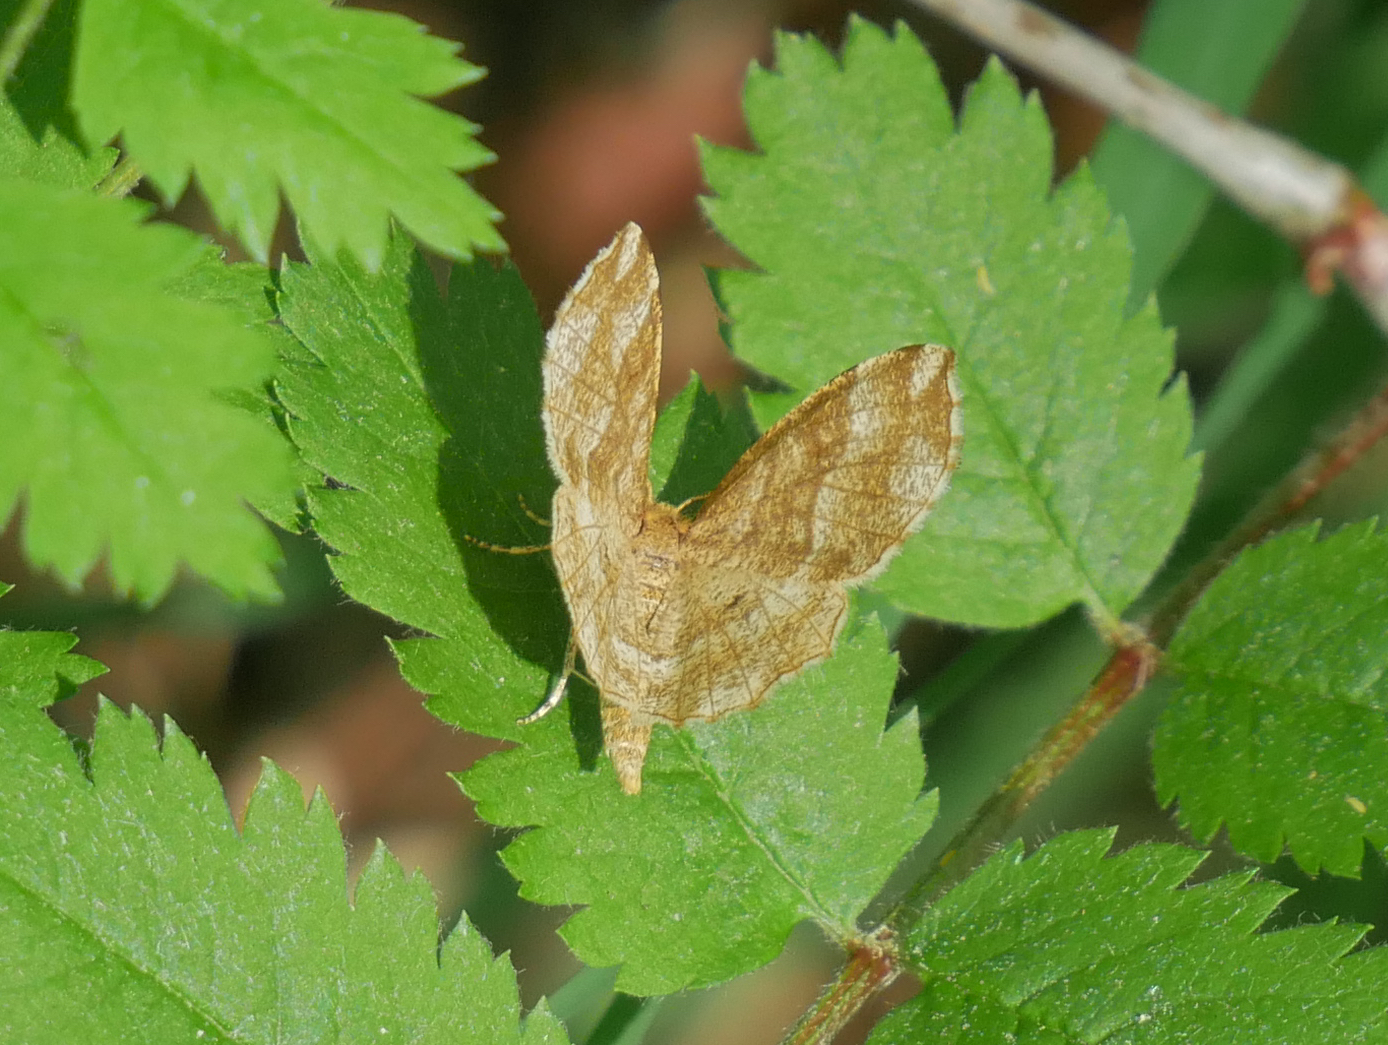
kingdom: Animalia
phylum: Arthropoda
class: Insecta
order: Lepidoptera
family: Geometridae
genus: Cepphis
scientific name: Cepphis advenaria
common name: Little thorn
